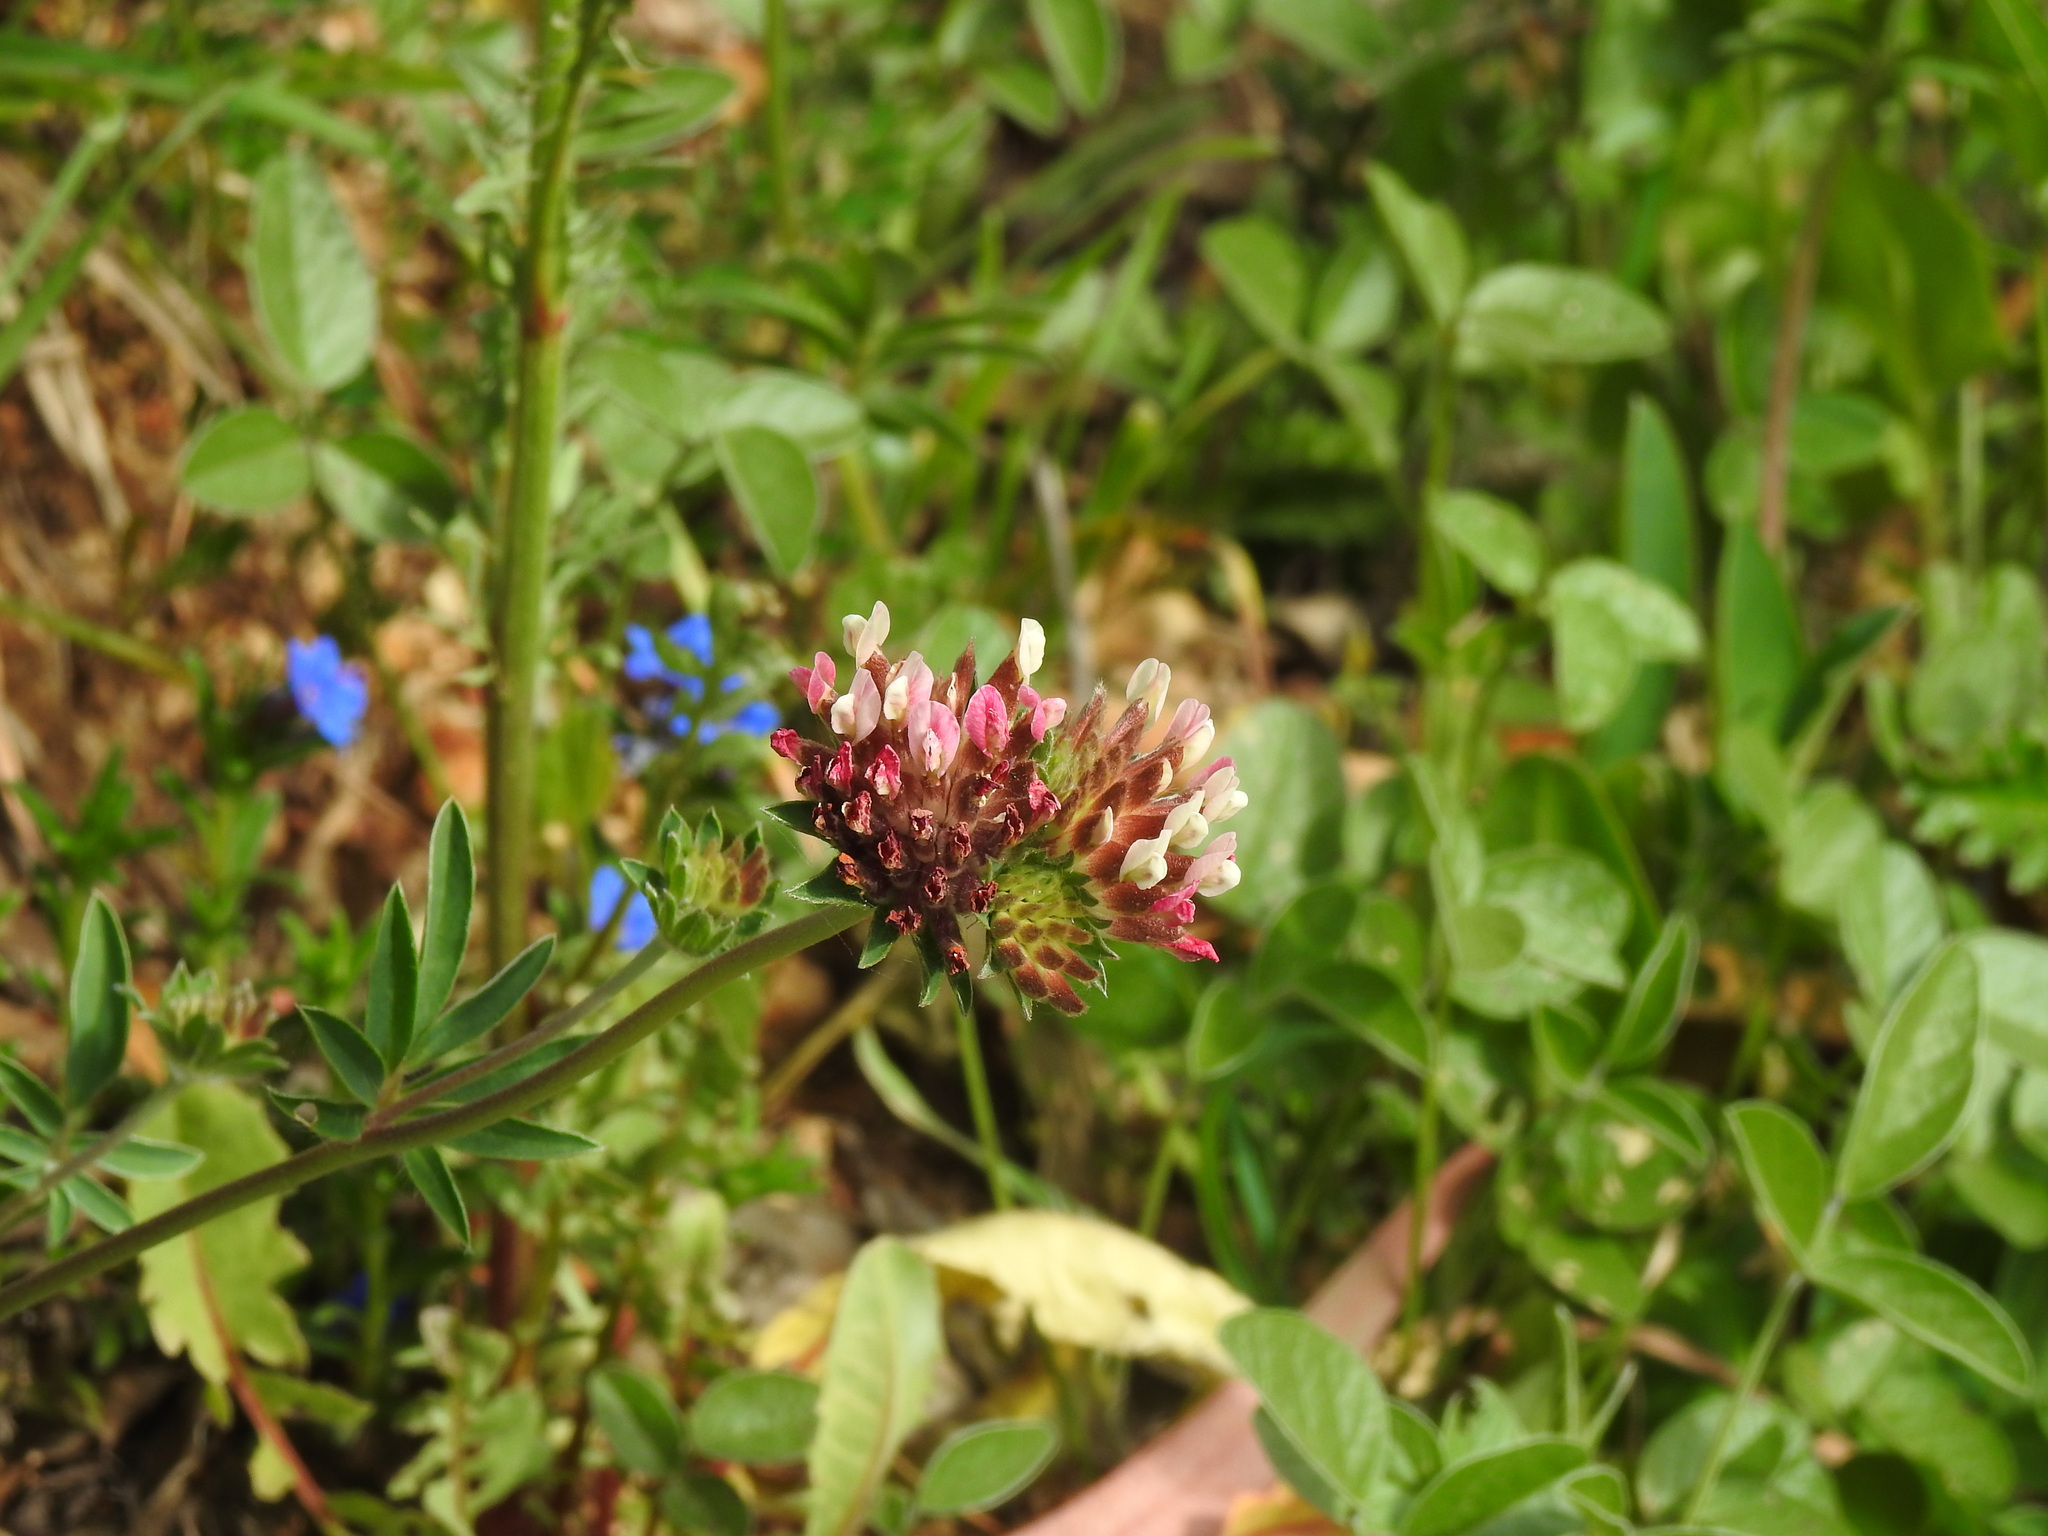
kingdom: Plantae
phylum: Tracheophyta
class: Magnoliopsida
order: Fabales
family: Fabaceae
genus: Anthyllis
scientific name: Anthyllis vulneraria
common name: Kidney vetch
